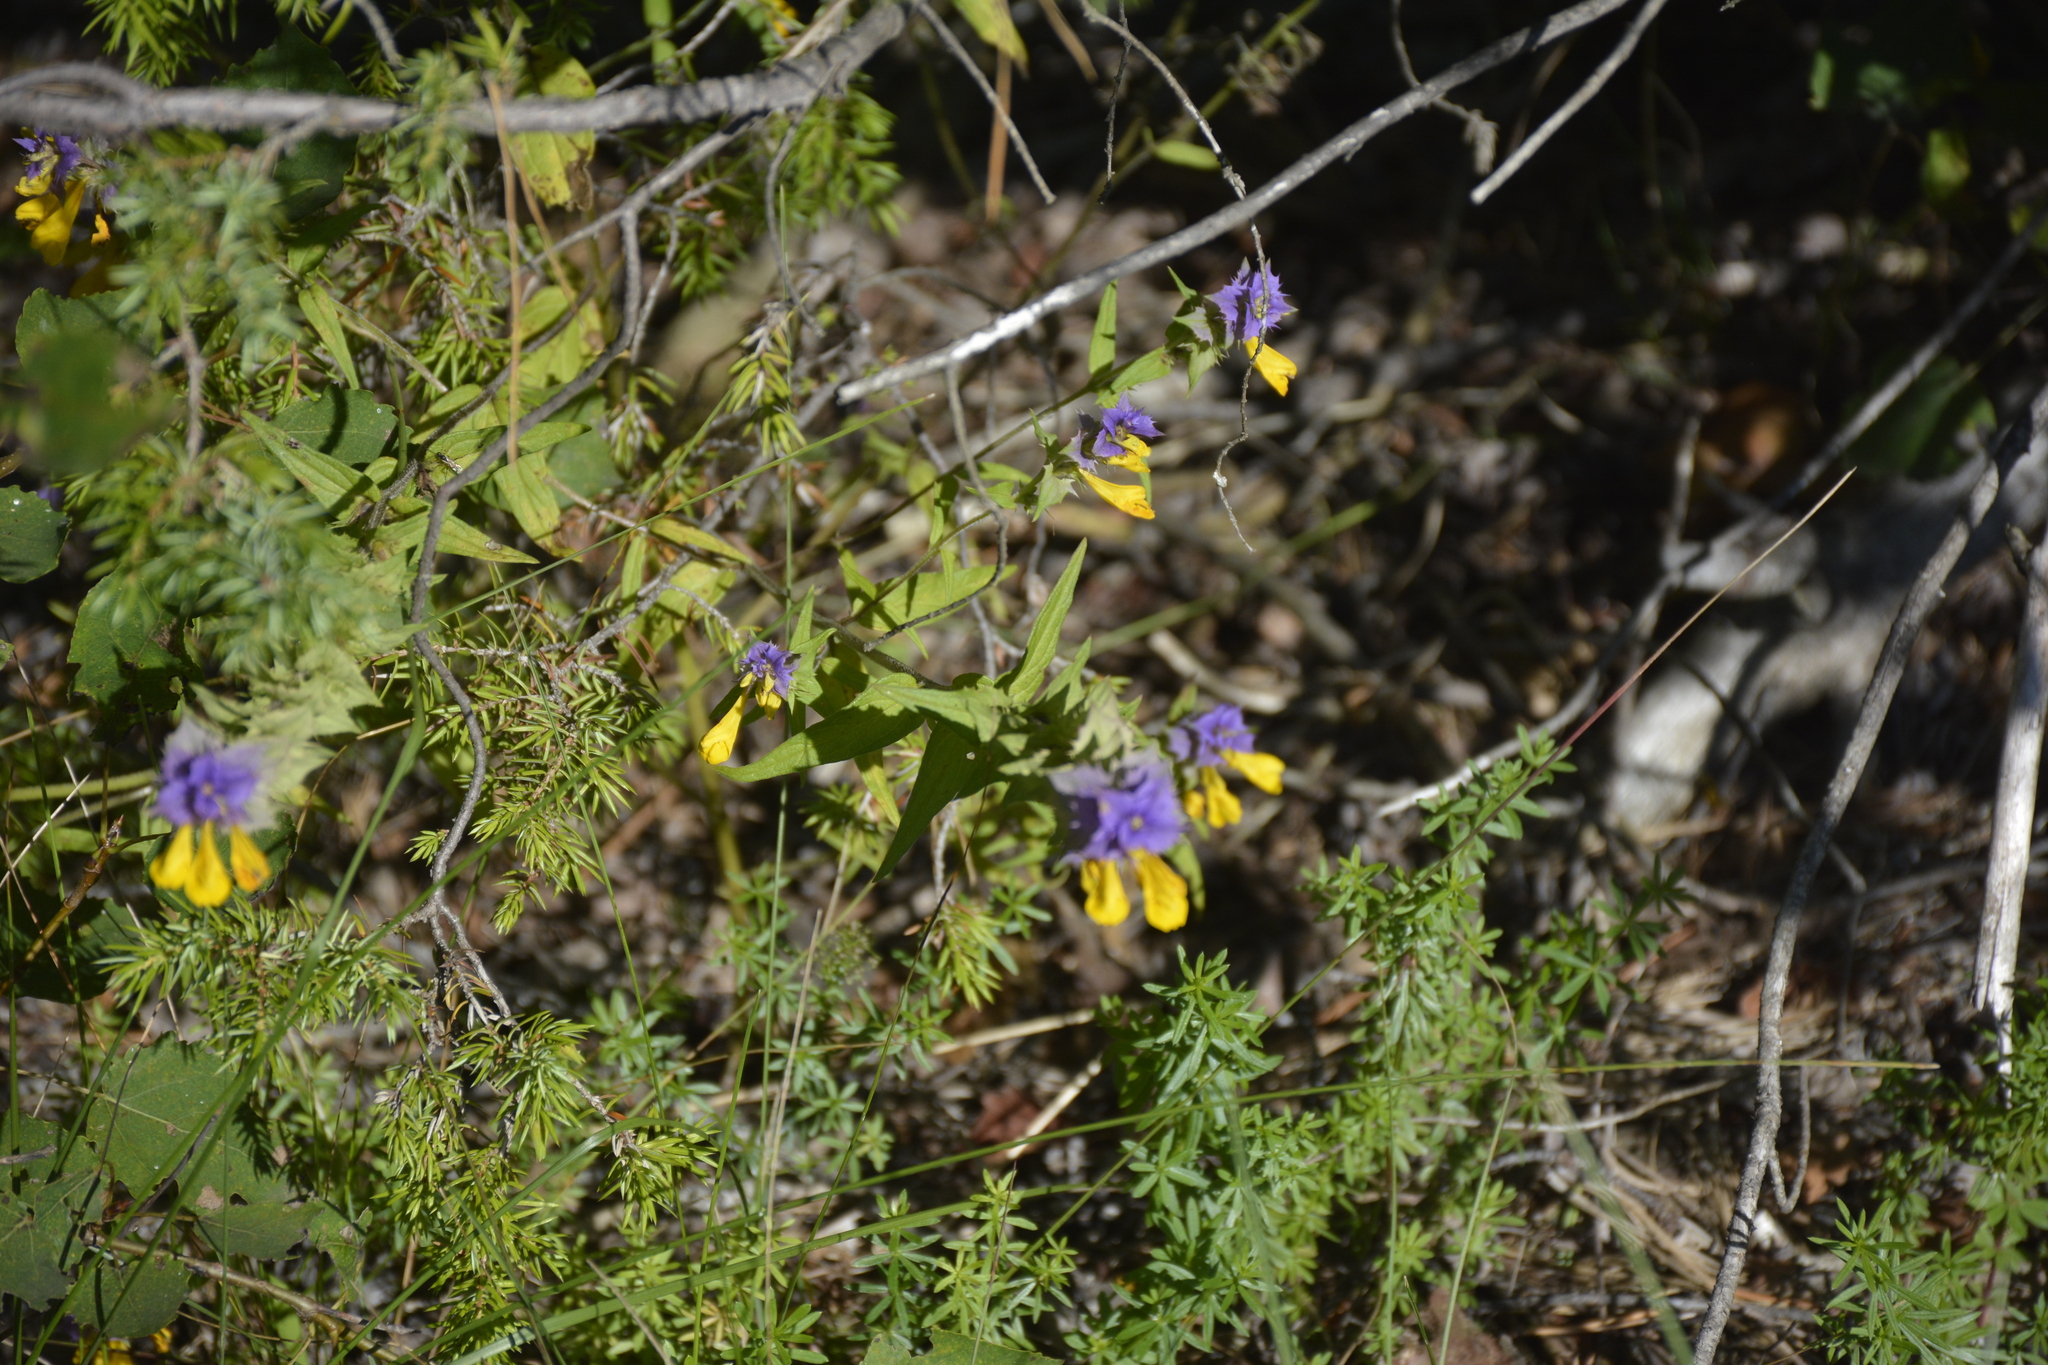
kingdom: Plantae
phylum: Tracheophyta
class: Magnoliopsida
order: Lamiales
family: Orobanchaceae
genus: Melampyrum
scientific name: Melampyrum nemorosum
